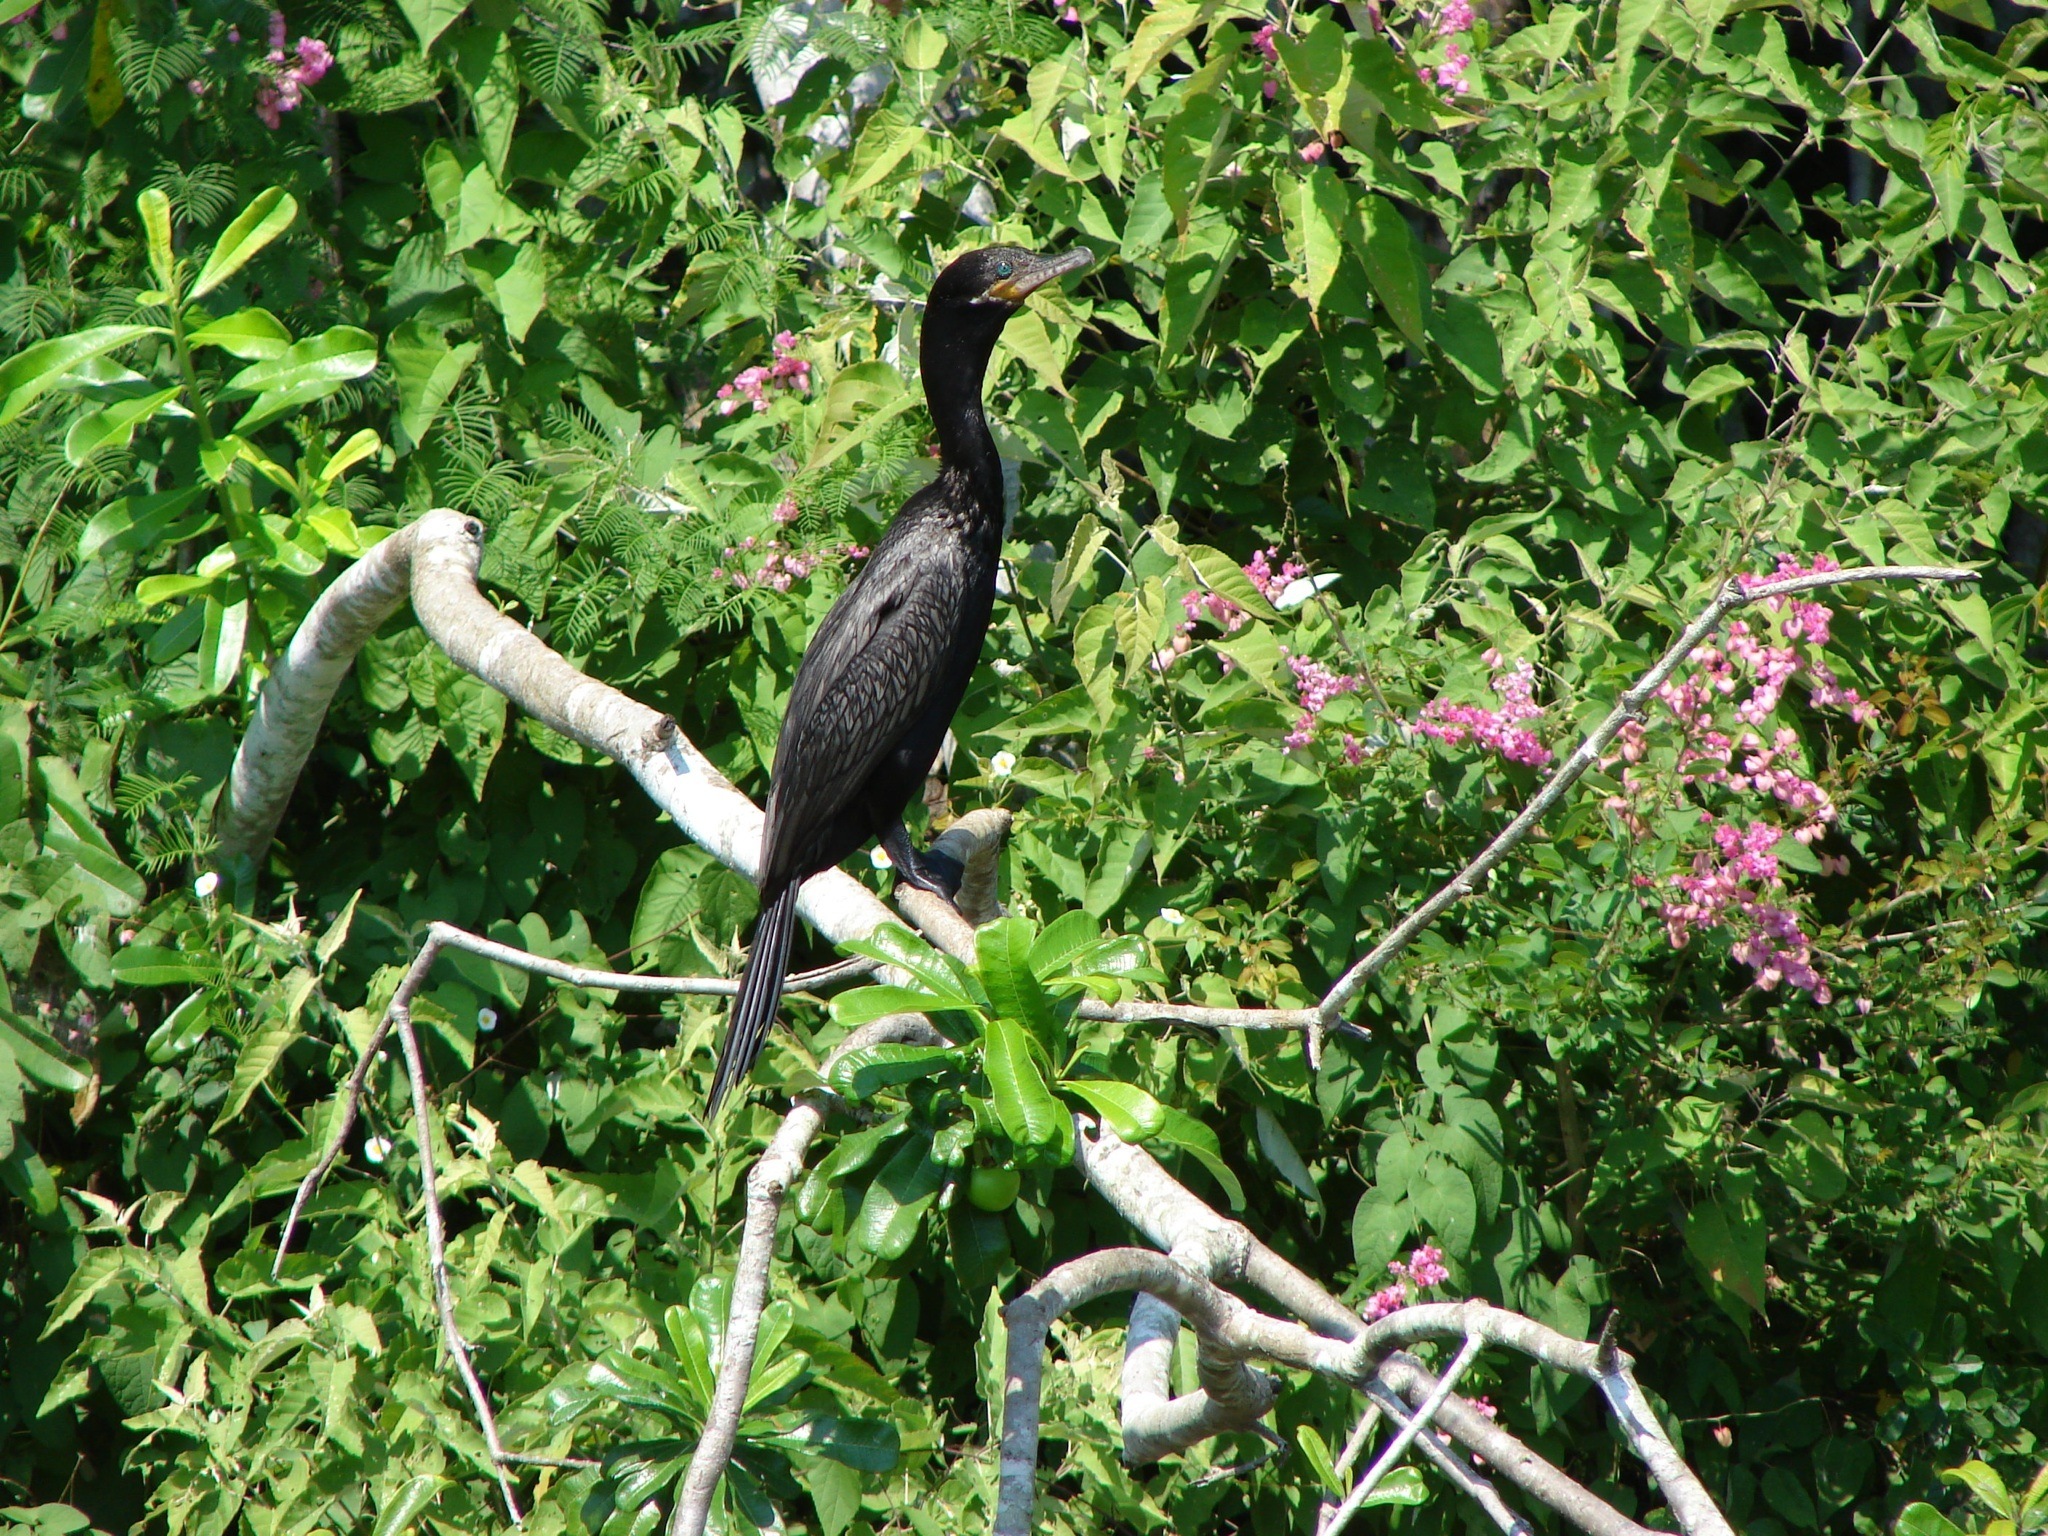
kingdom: Animalia
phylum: Chordata
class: Aves
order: Suliformes
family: Phalacrocoracidae
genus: Phalacrocorax
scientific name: Phalacrocorax brasilianus
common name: Neotropic cormorant
